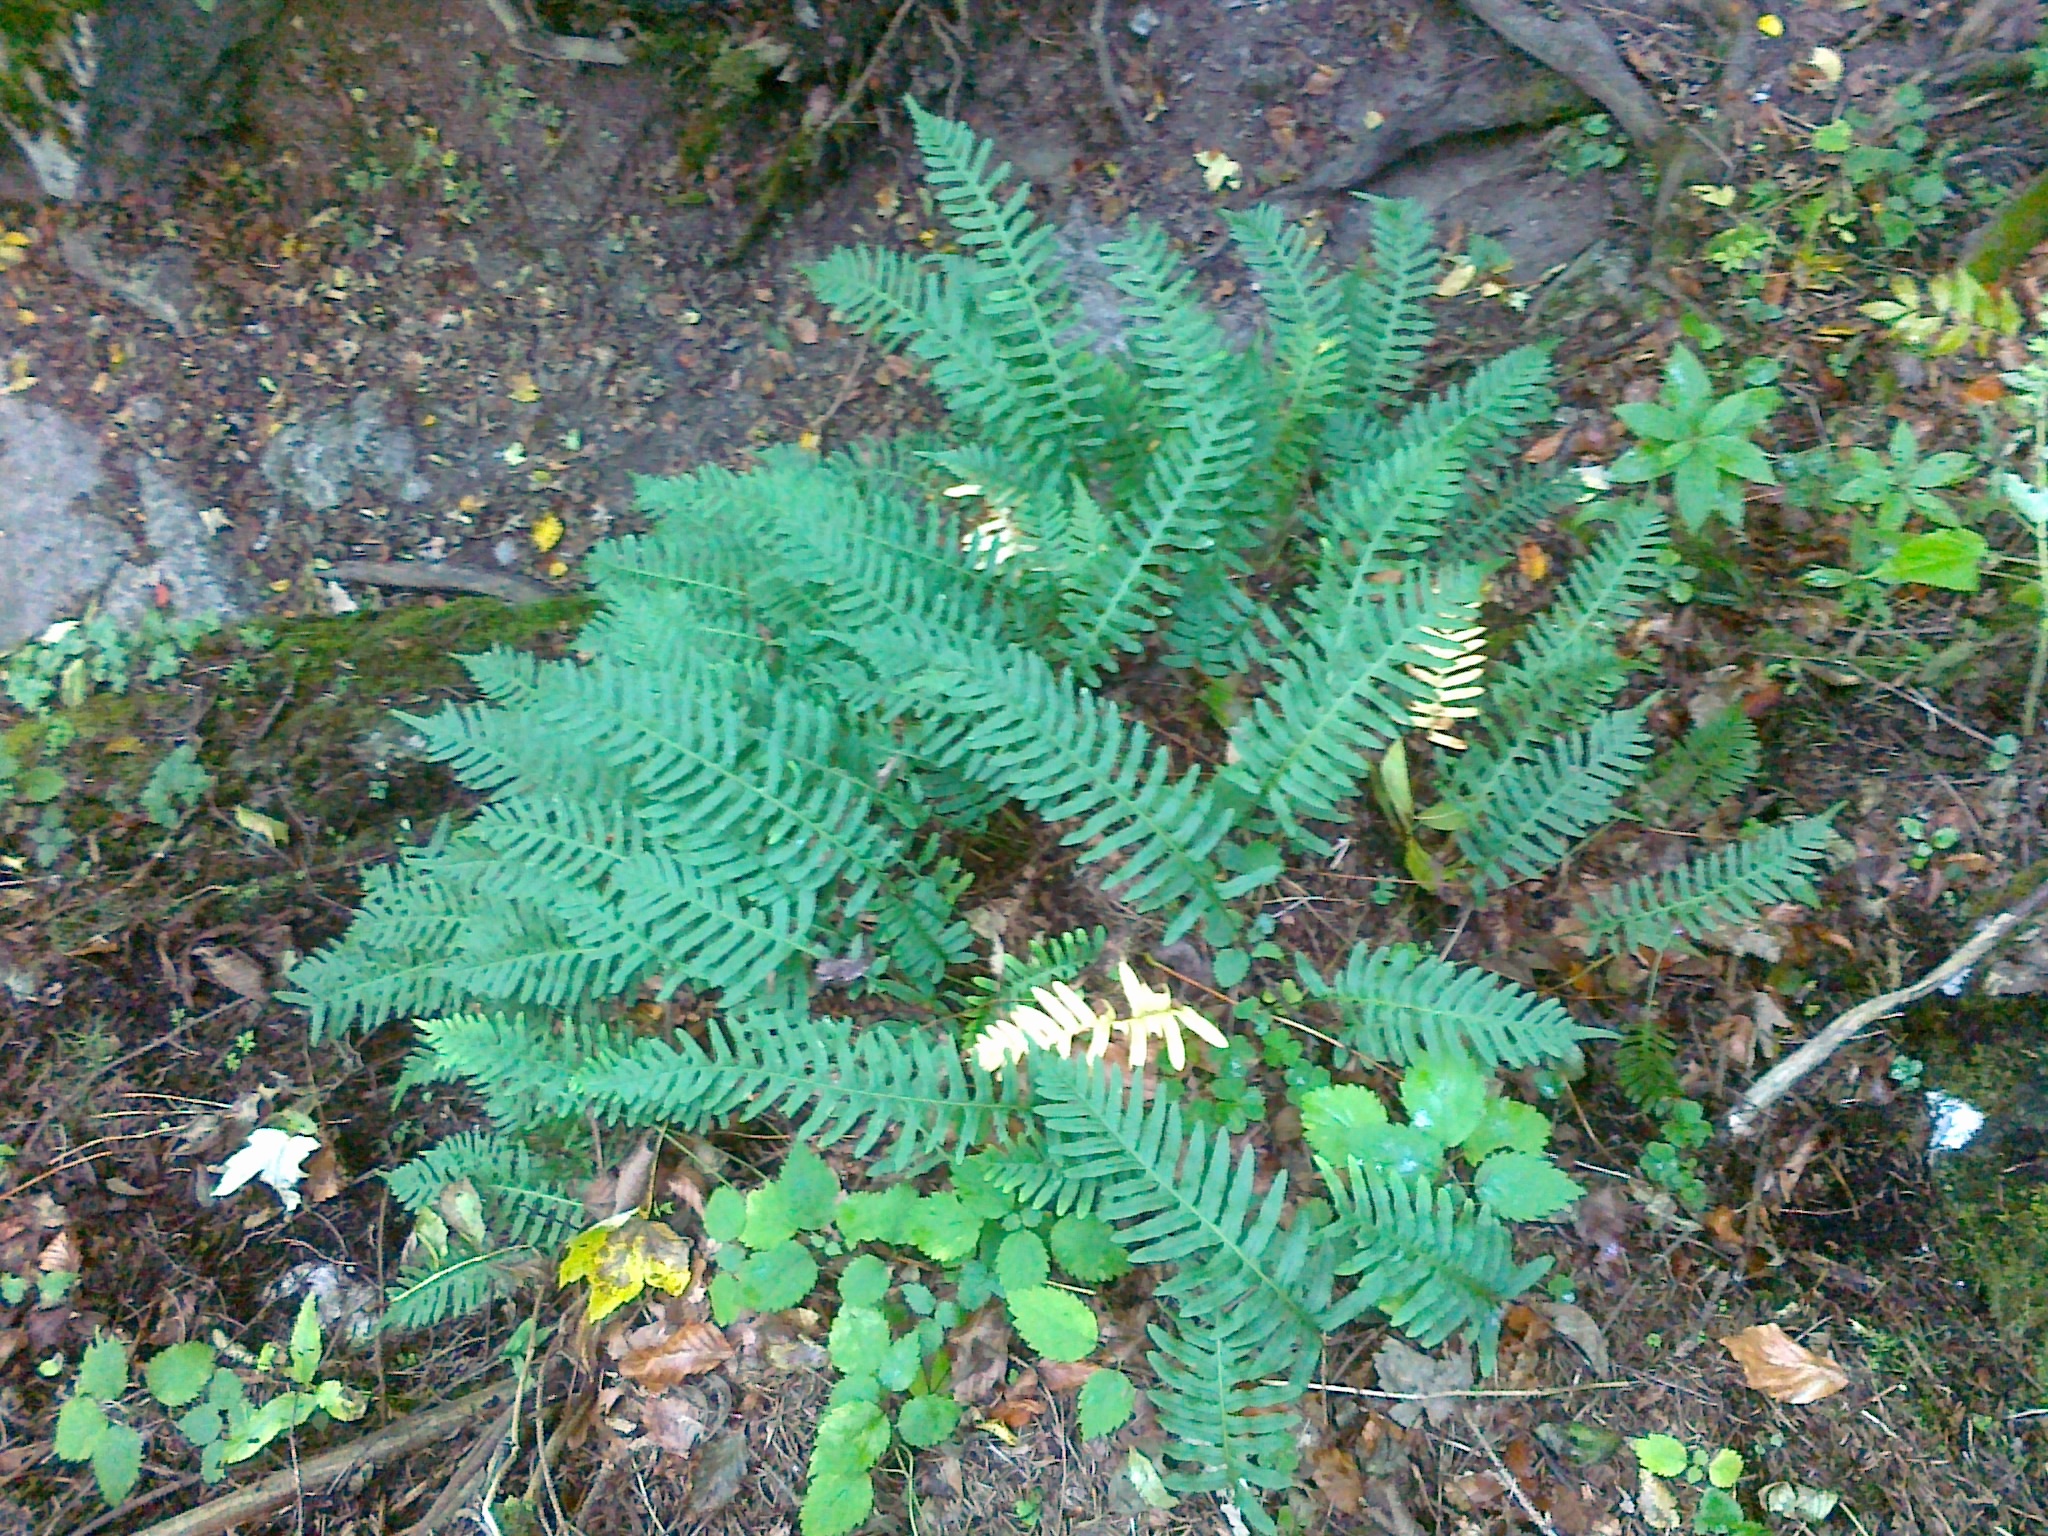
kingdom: Plantae
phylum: Tracheophyta
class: Polypodiopsida
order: Polypodiales
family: Polypodiaceae
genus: Polypodium
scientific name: Polypodium vulgare
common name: Common polypody
